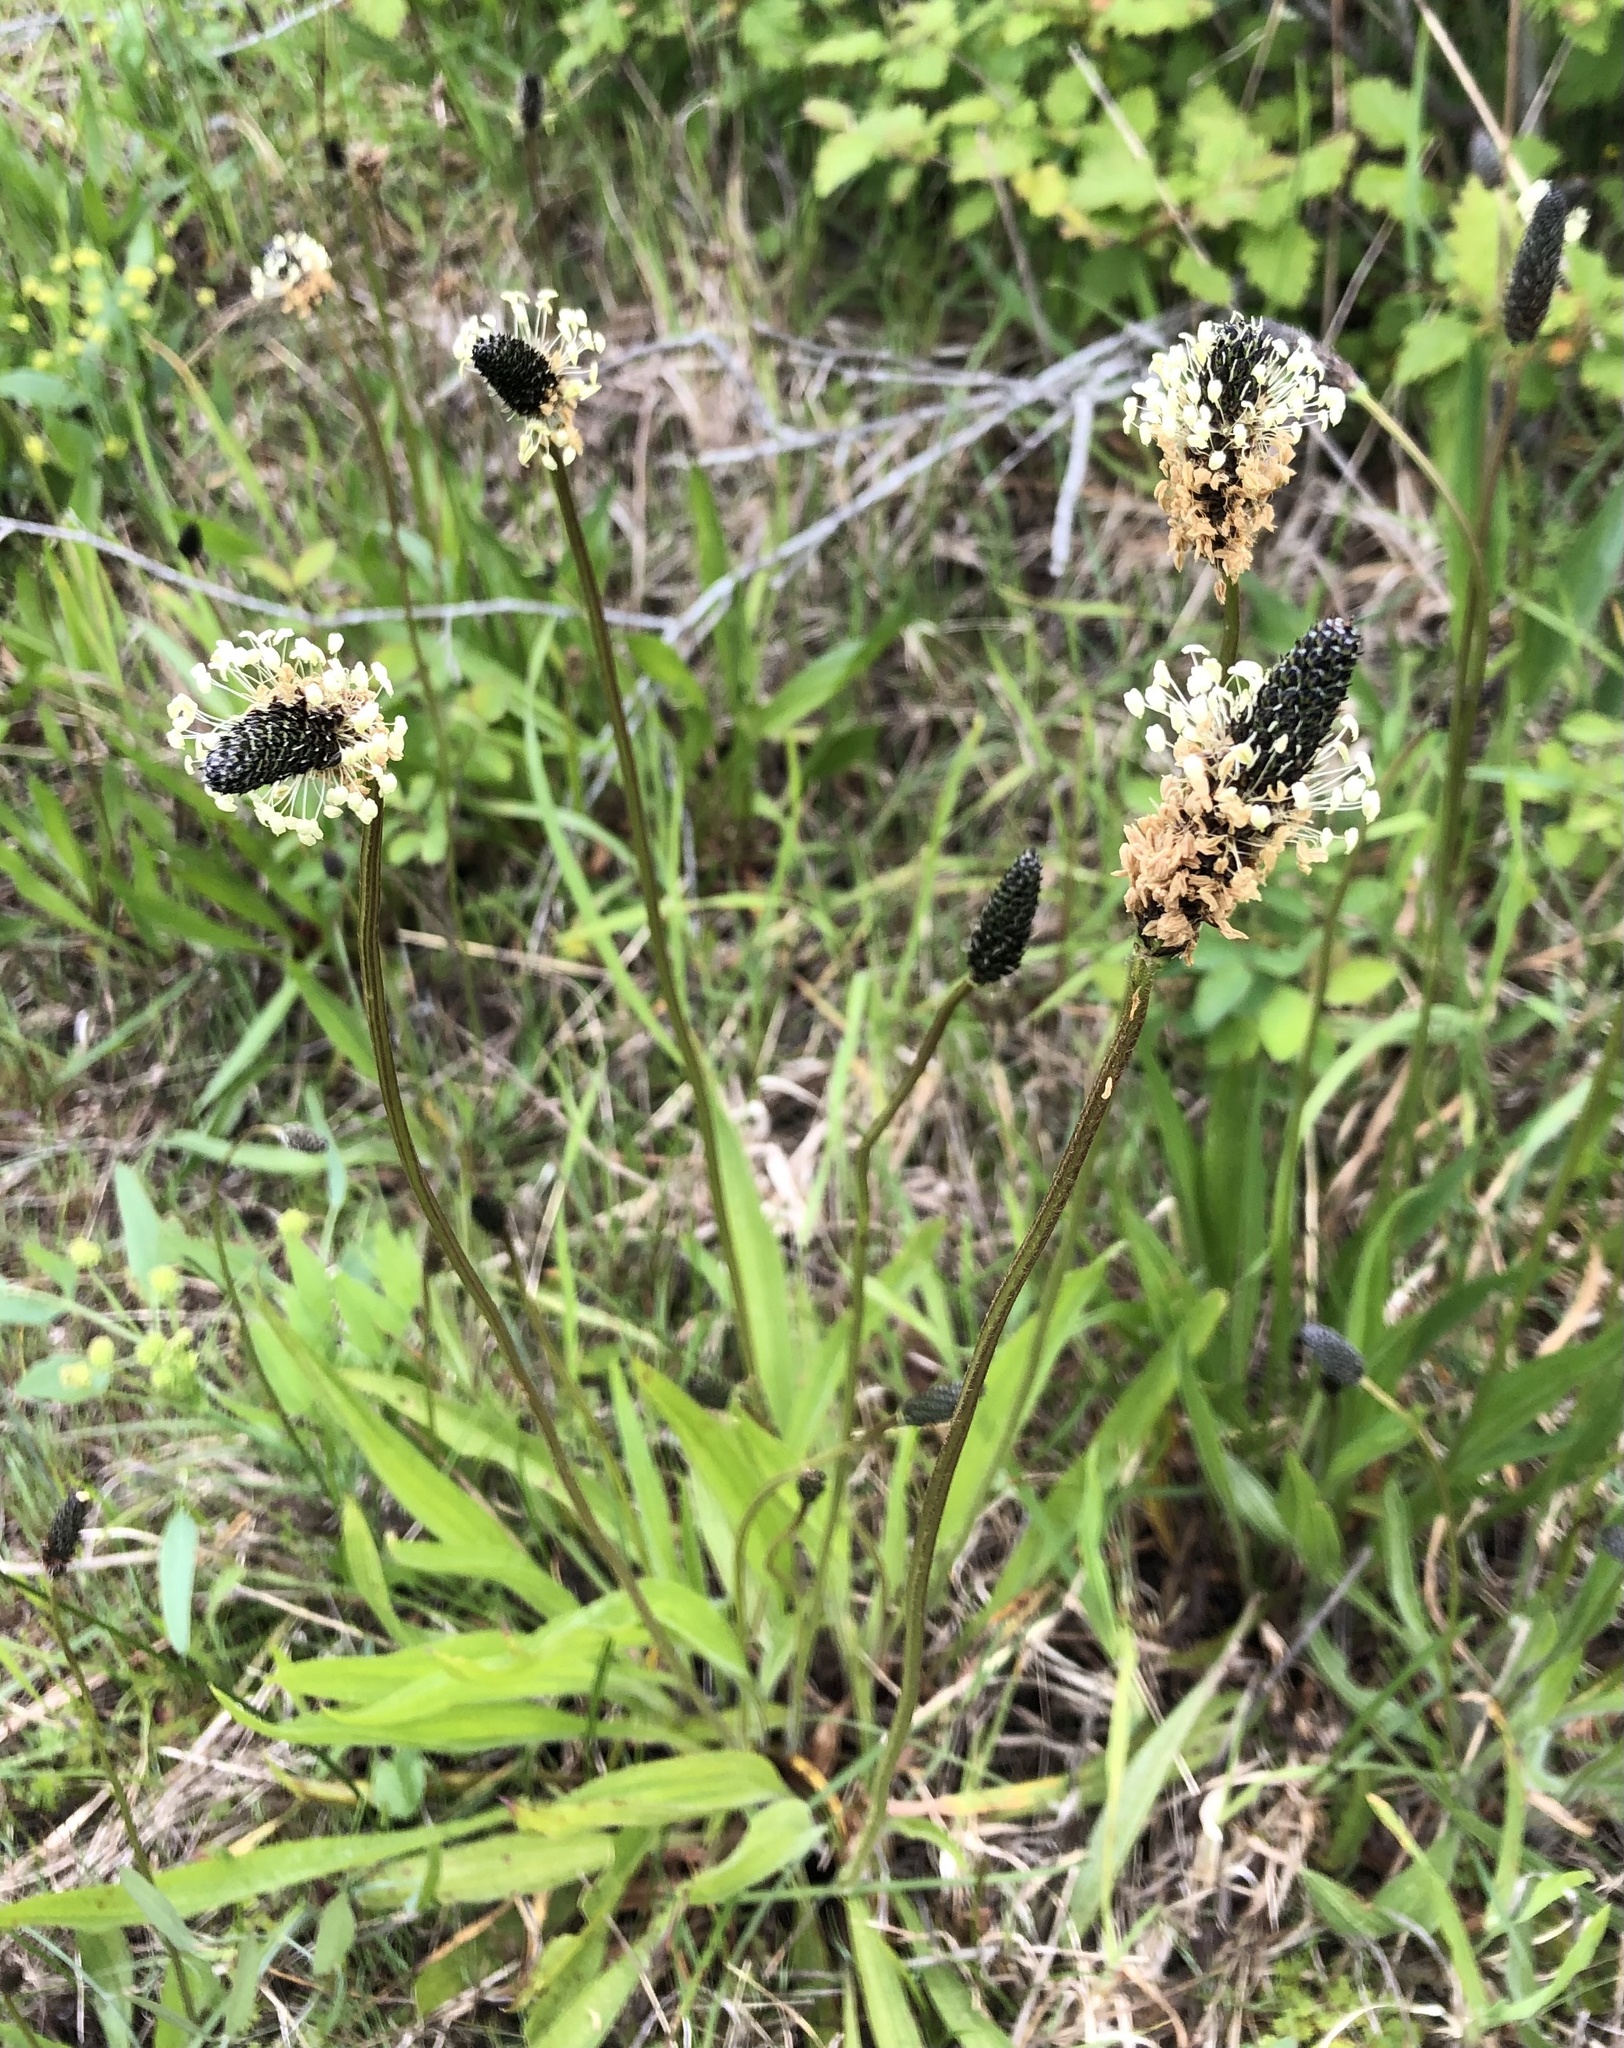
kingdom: Plantae
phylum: Tracheophyta
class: Magnoliopsida
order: Lamiales
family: Plantaginaceae
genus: Plantago
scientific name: Plantago lanceolata
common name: Ribwort plantain
